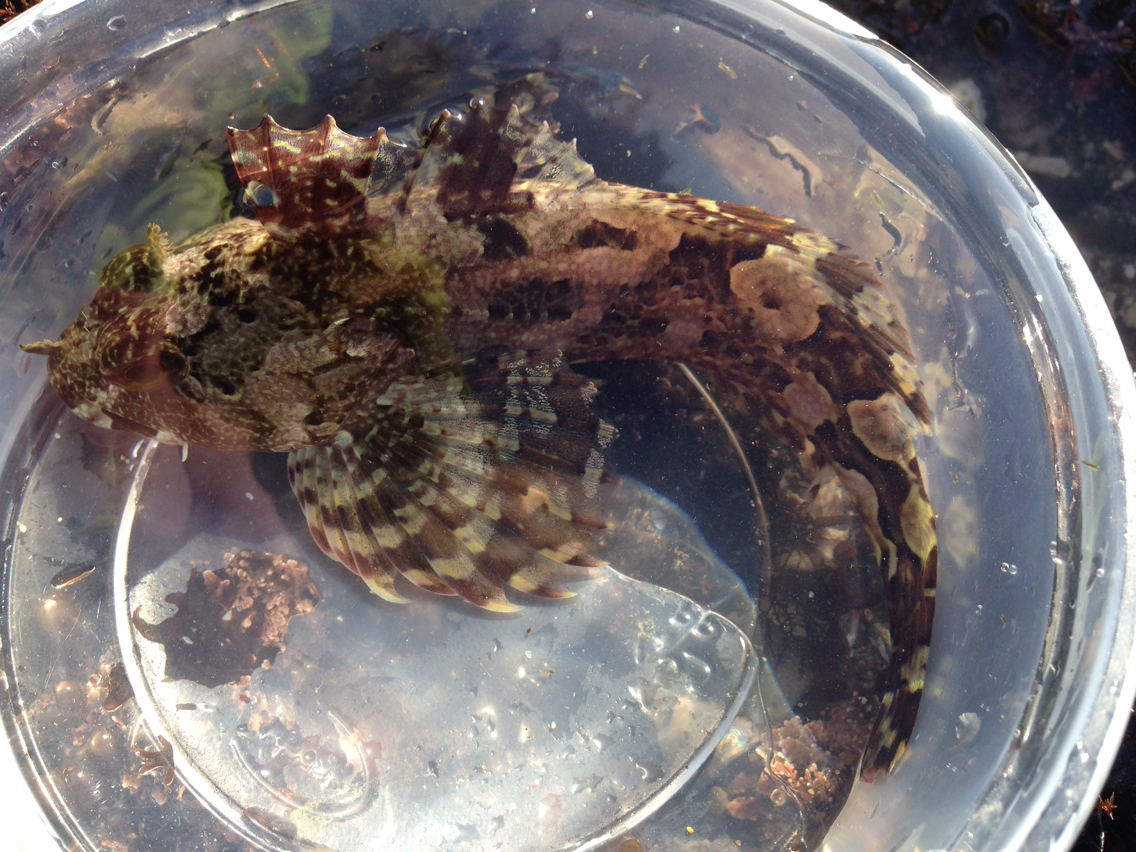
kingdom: Animalia
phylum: Chordata
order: Scorpaeniformes
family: Cottidae
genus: Scorpaenichthys
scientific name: Scorpaenichthys marmoratus
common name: Cabezon
